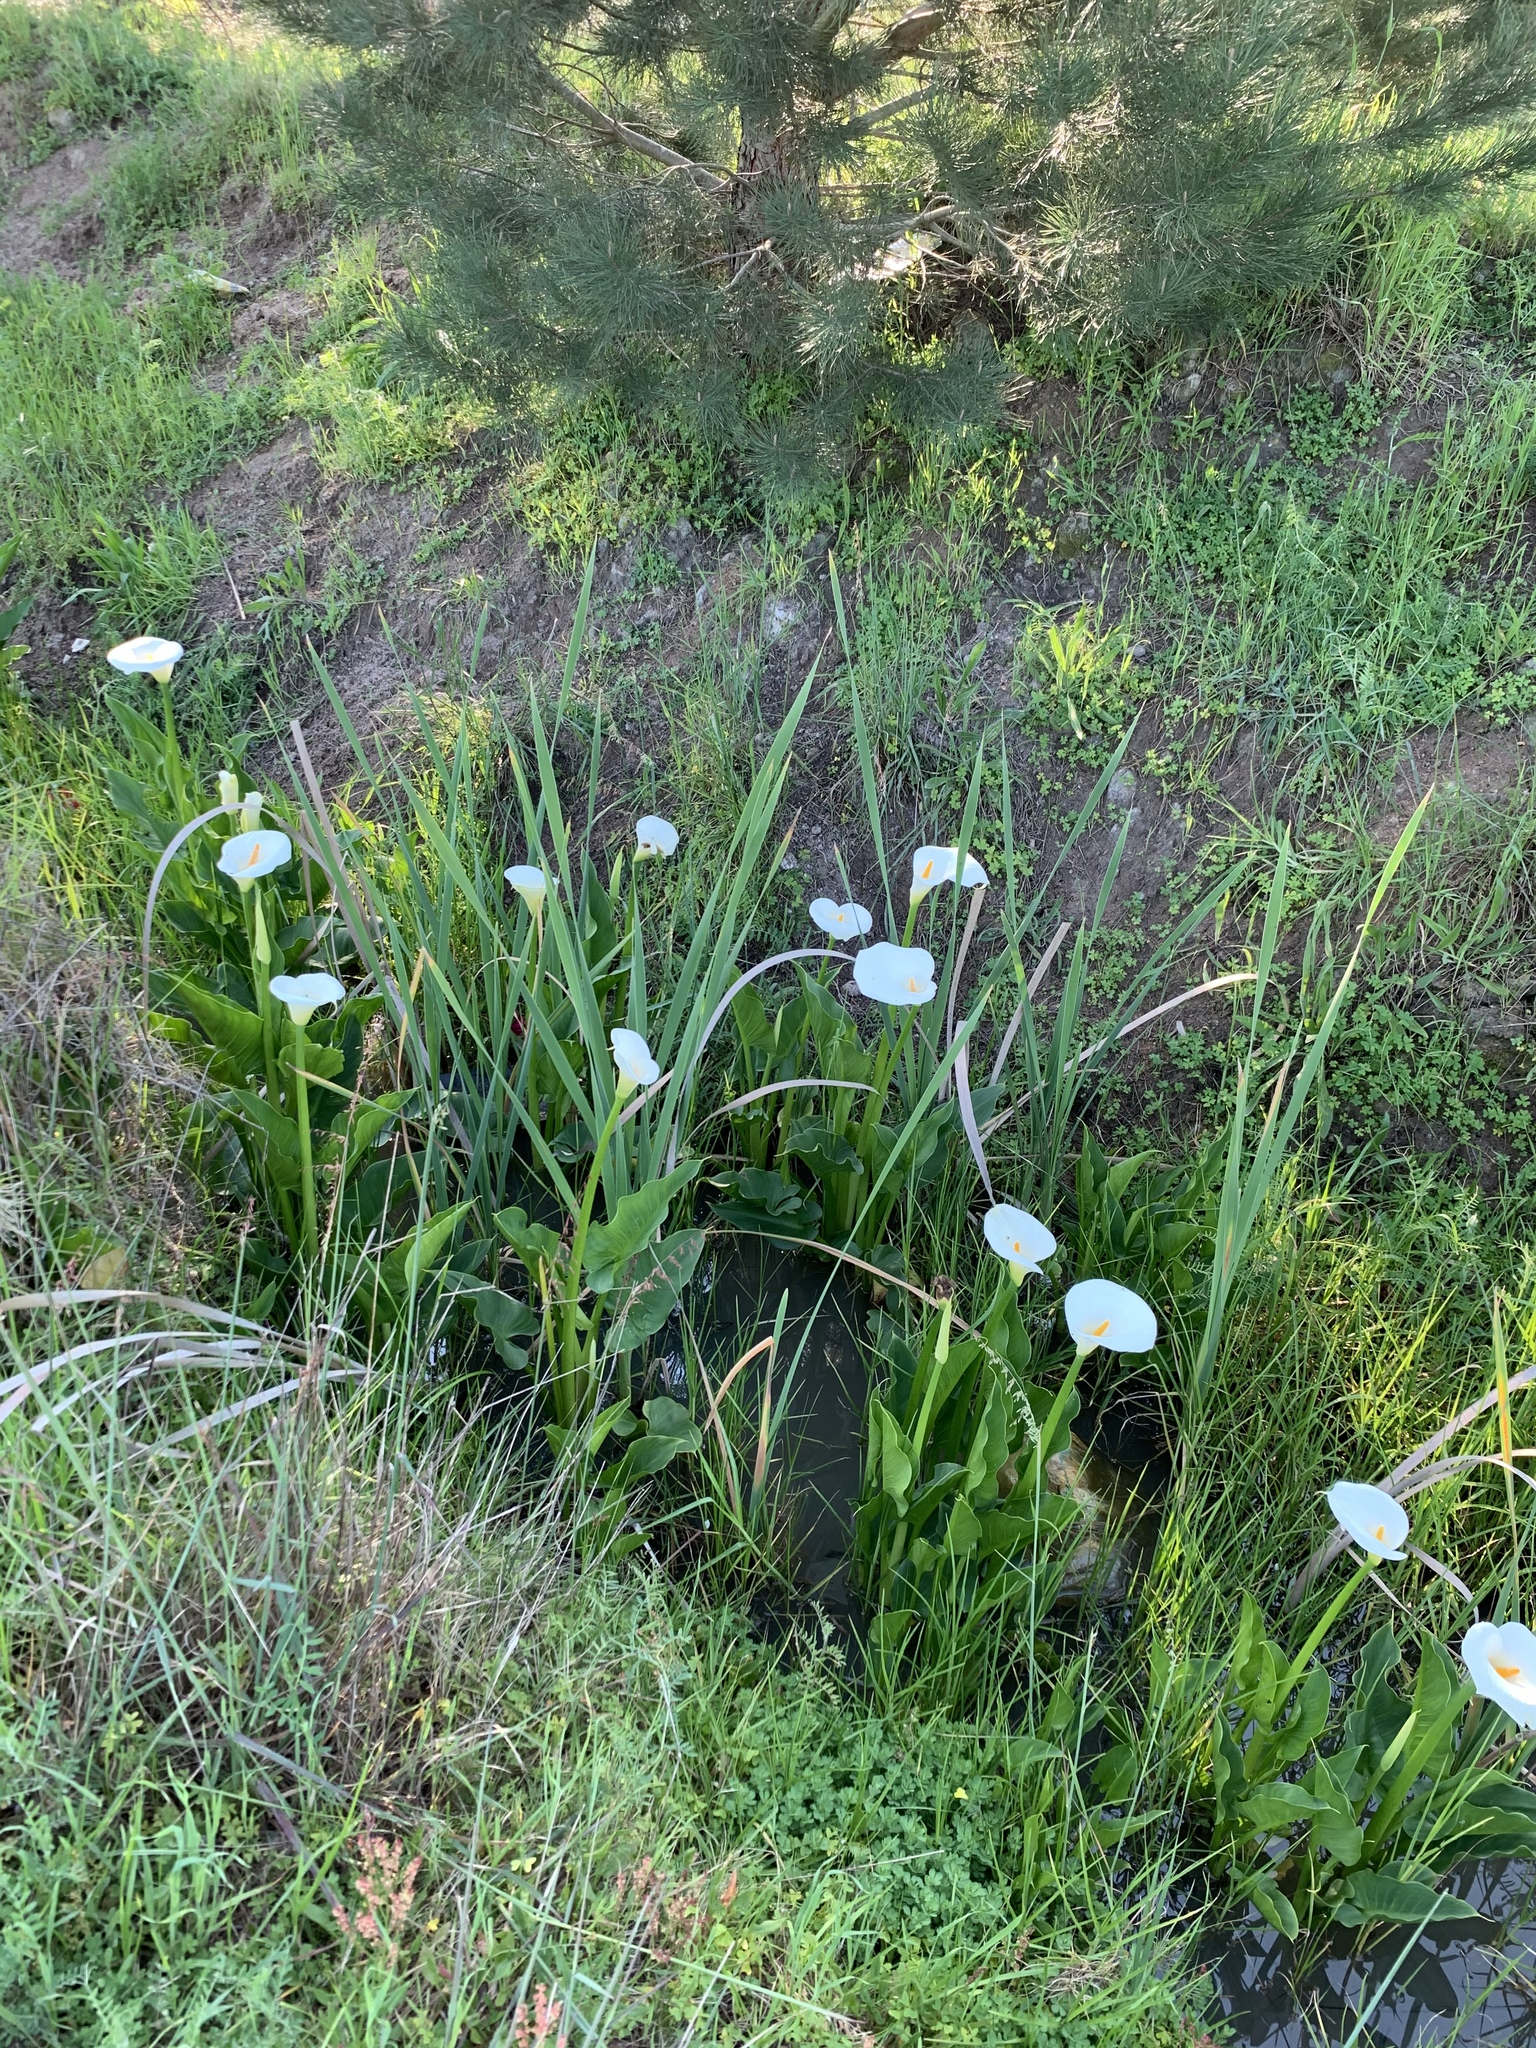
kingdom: Plantae
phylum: Tracheophyta
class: Liliopsida
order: Alismatales
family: Araceae
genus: Zantedeschia
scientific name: Zantedeschia aethiopica
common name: Altar-lily
